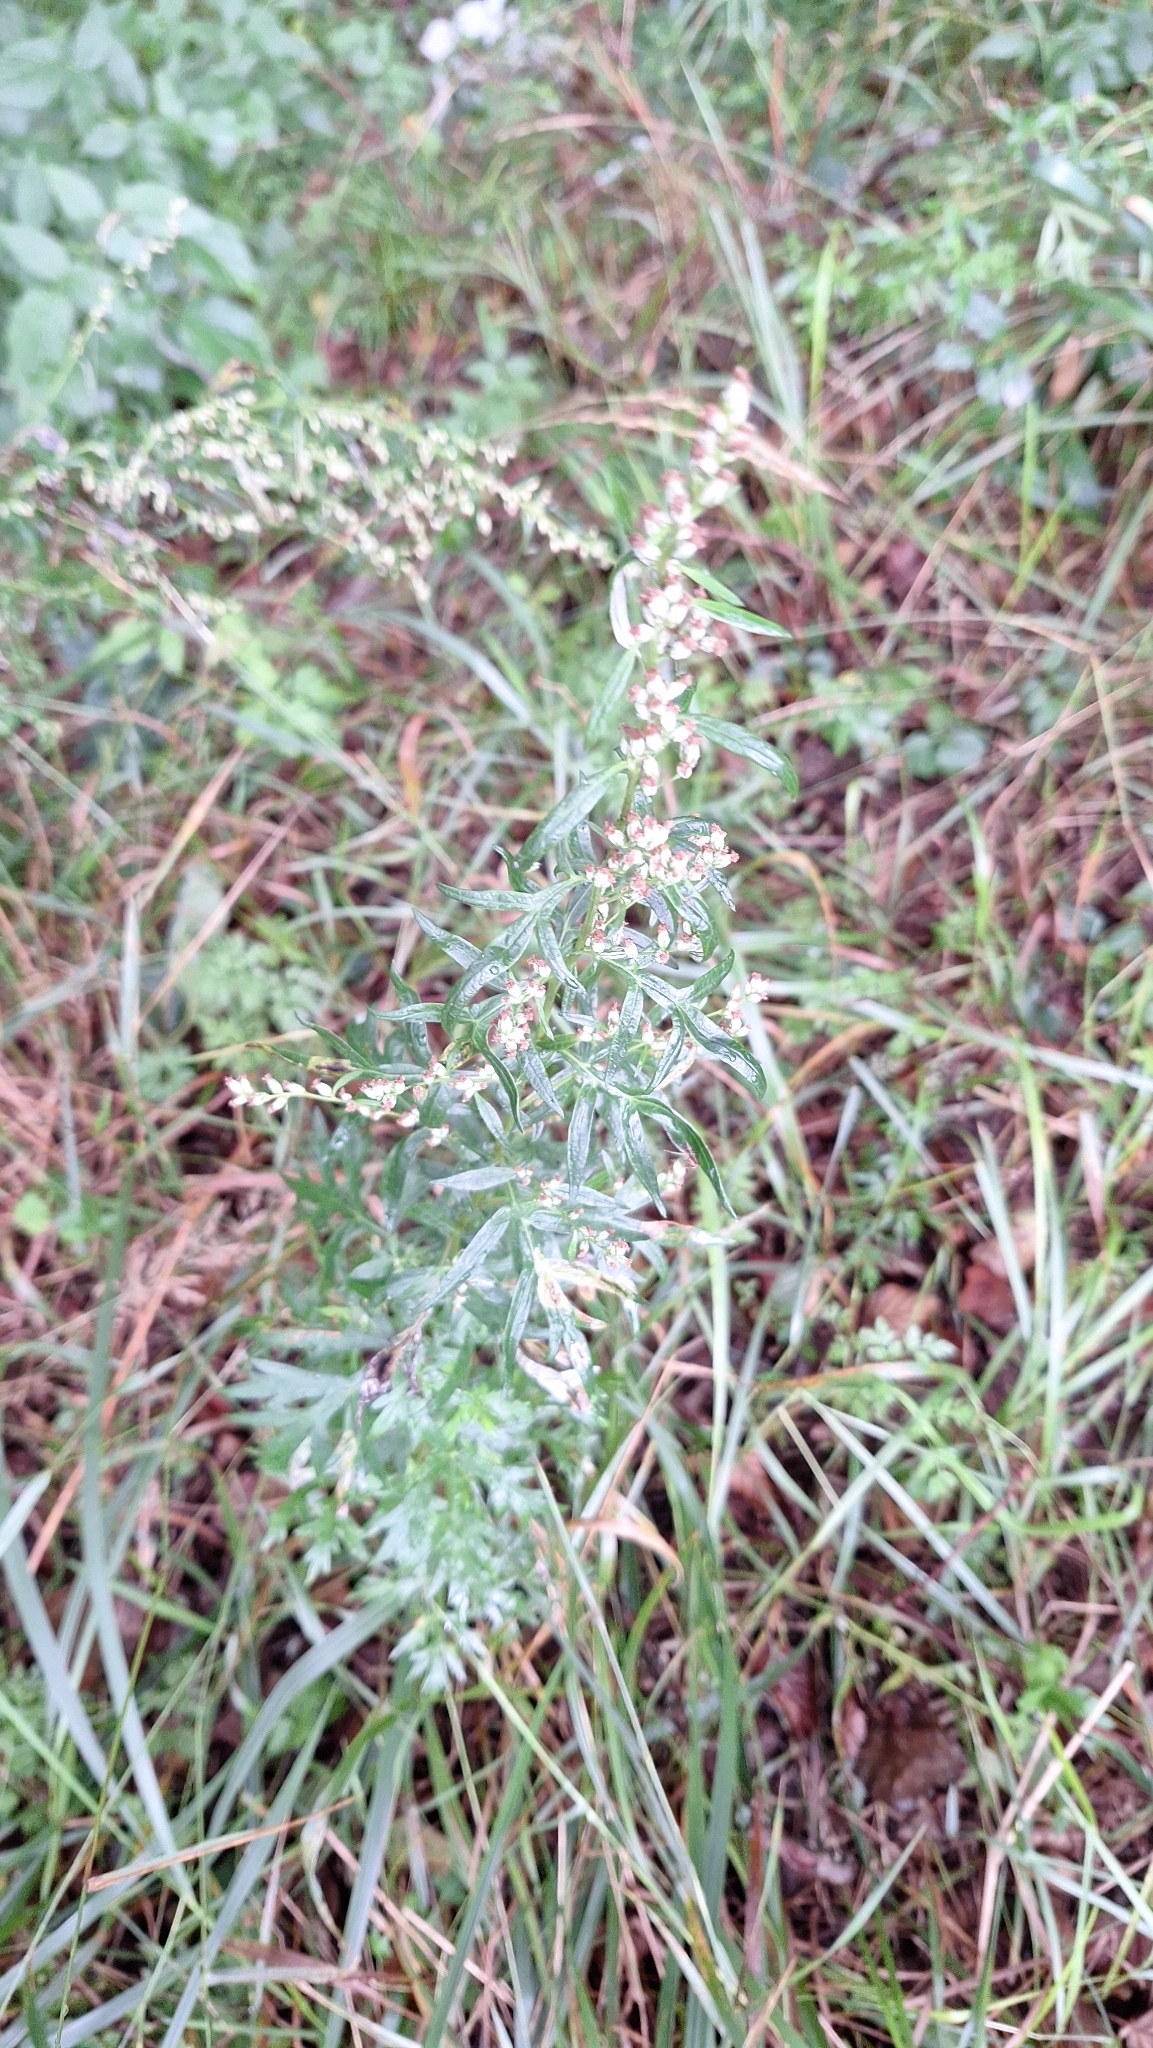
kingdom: Plantae
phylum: Tracheophyta
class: Magnoliopsida
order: Asterales
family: Asteraceae
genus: Artemisia
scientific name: Artemisia vulgaris
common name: Mugwort
